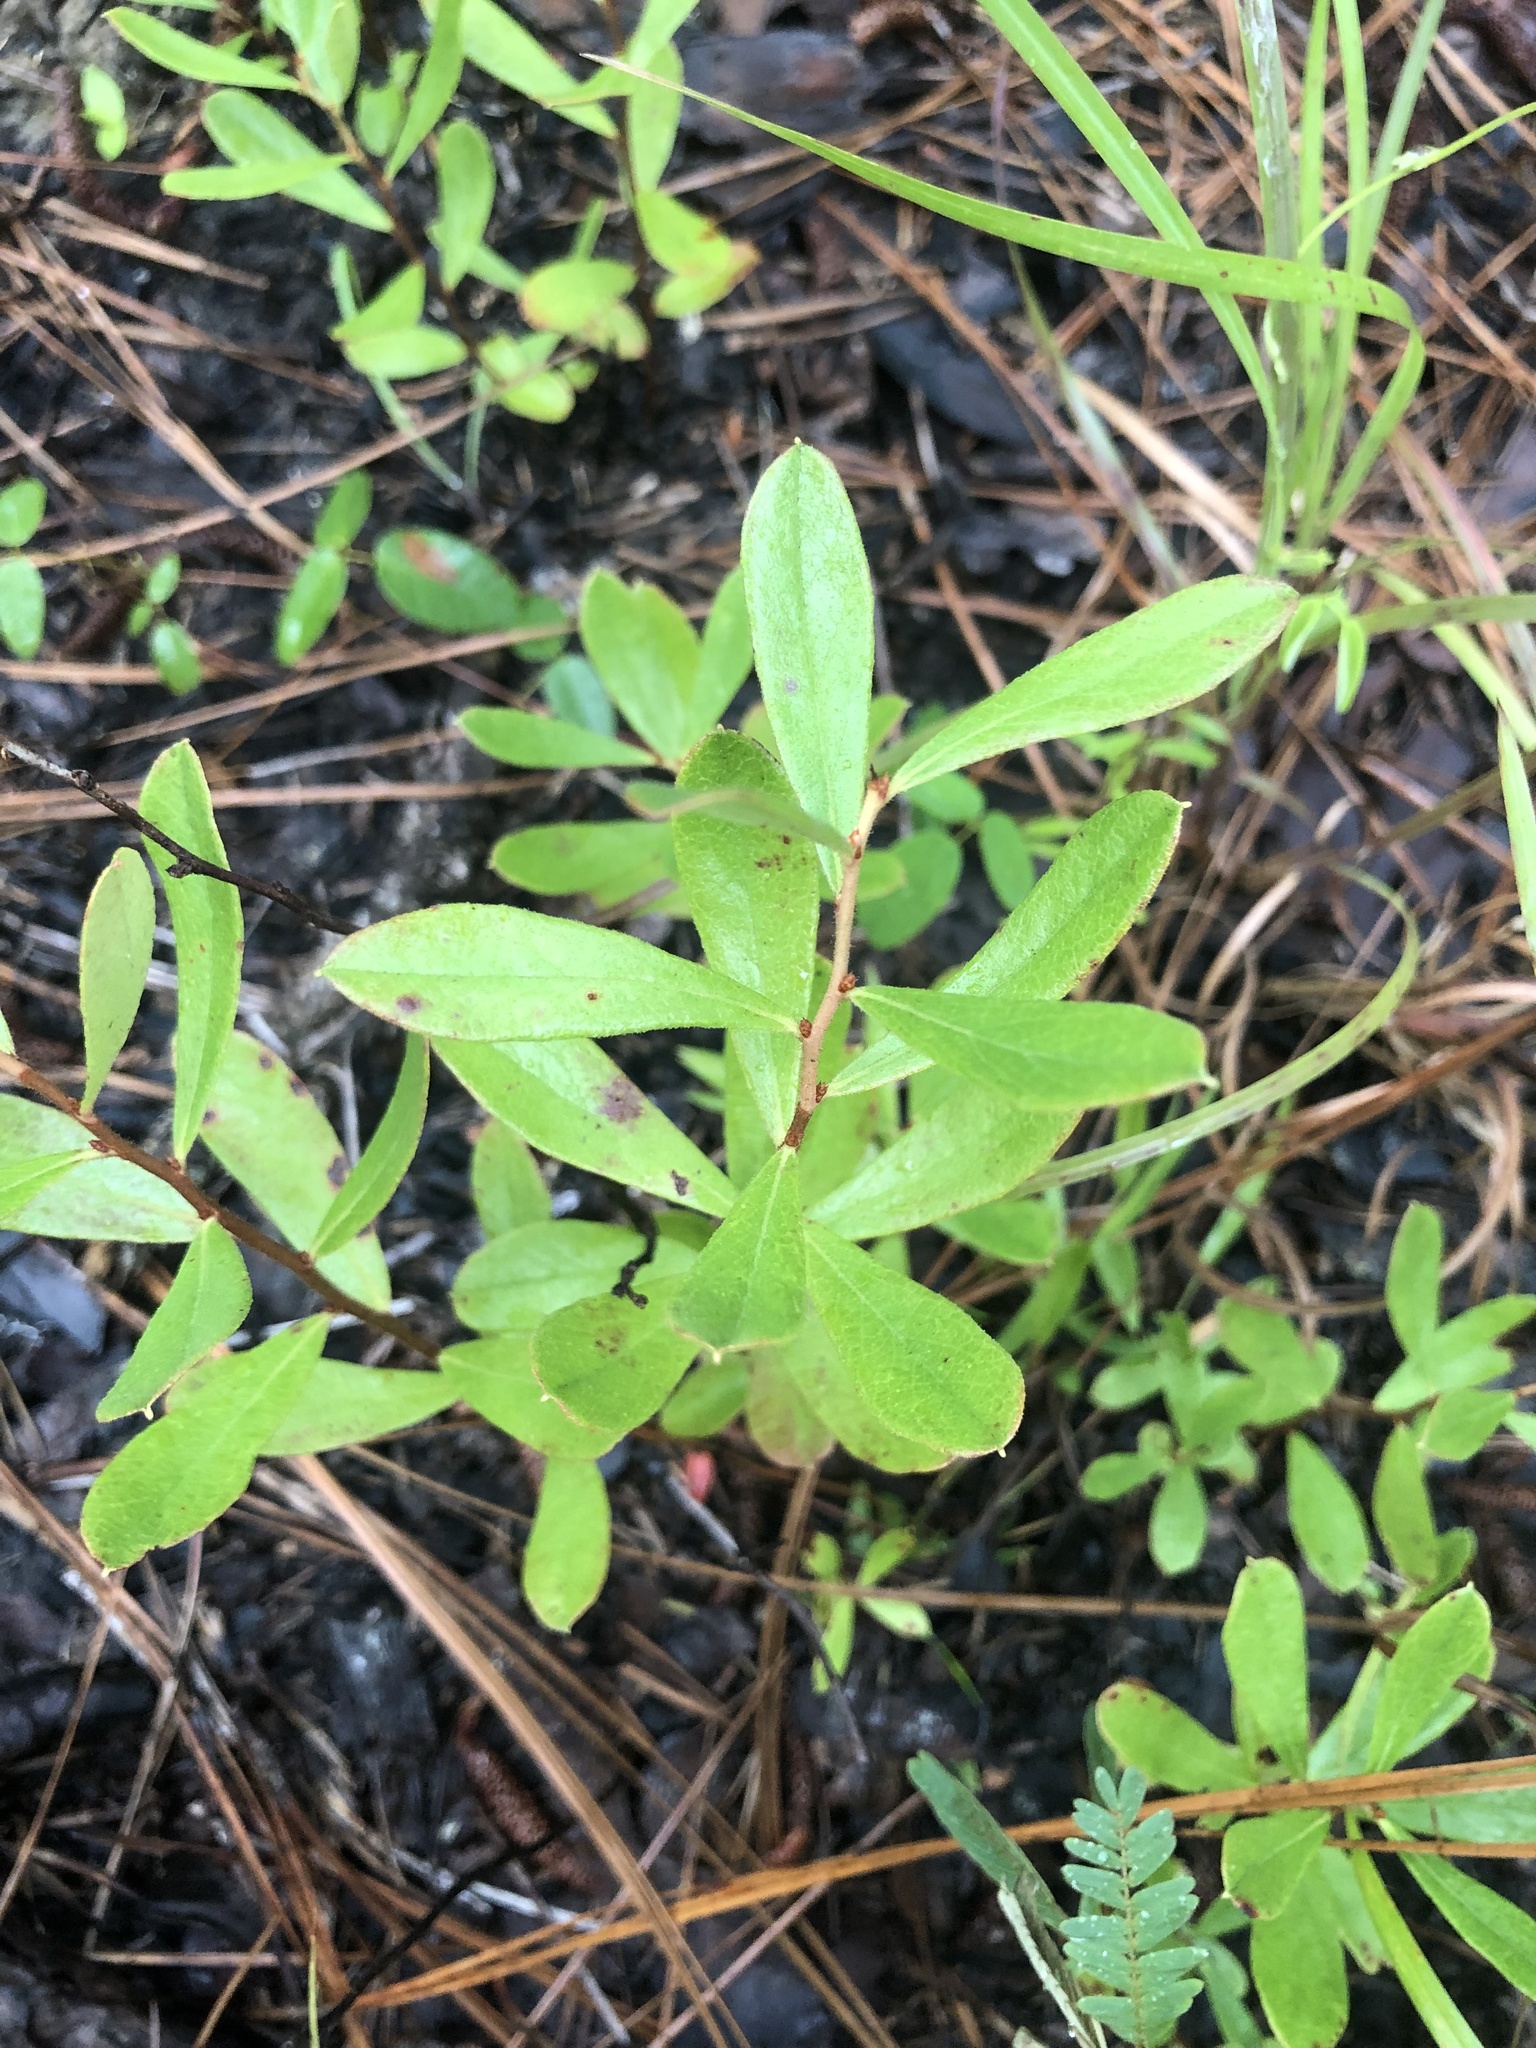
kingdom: Plantae
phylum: Tracheophyta
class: Magnoliopsida
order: Ericales
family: Ericaceae
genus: Gaylussacia
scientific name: Gaylussacia dumosa
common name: Dwarf huckleberry
